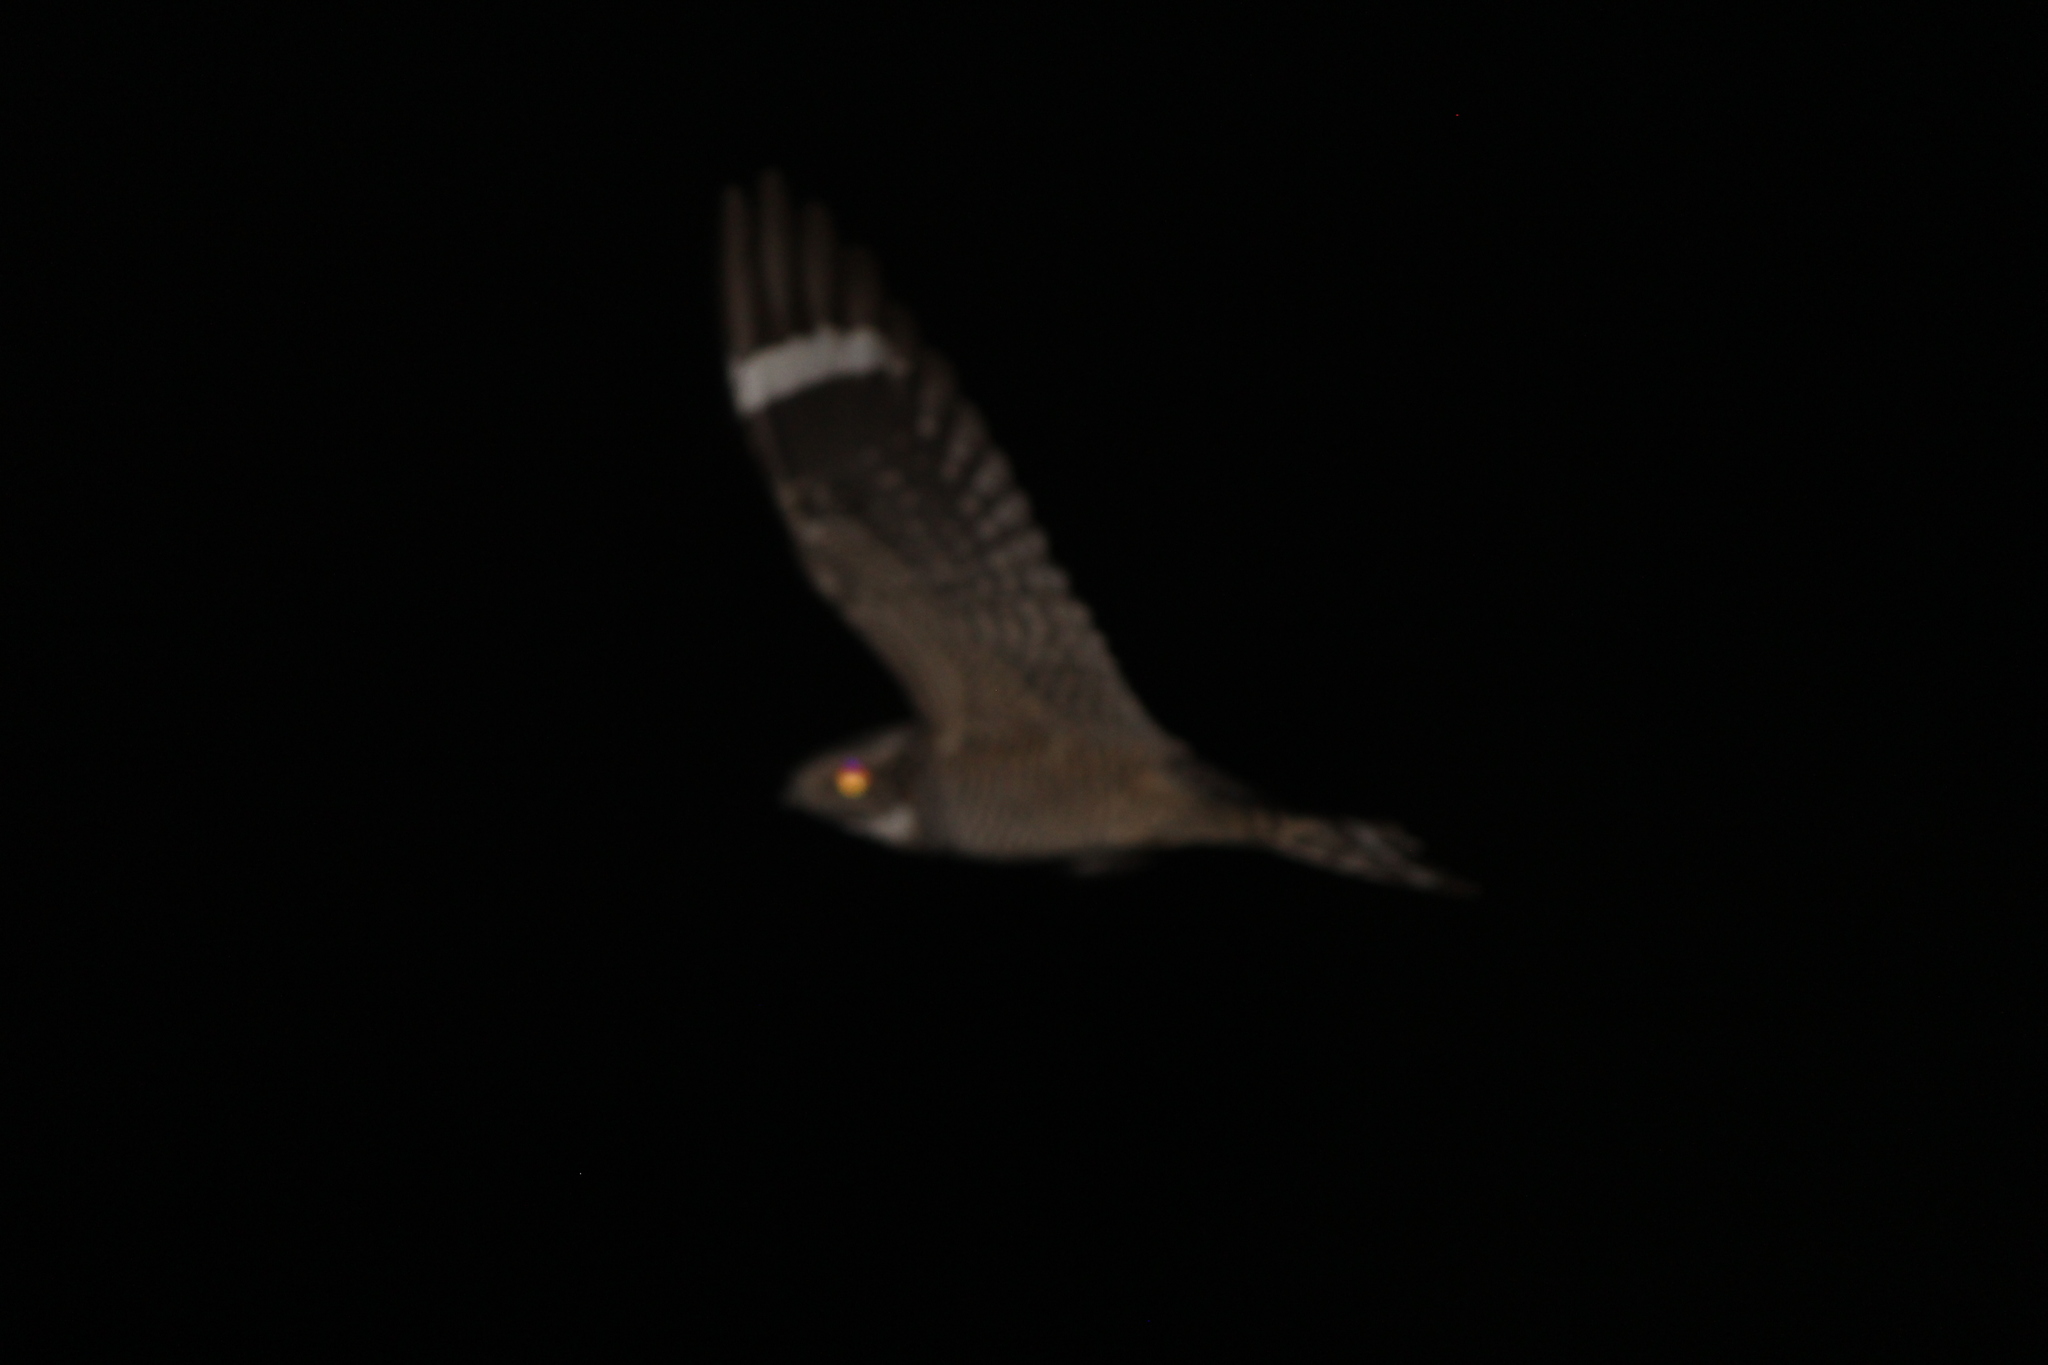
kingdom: Animalia
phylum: Chordata
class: Aves
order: Caprimulgiformes
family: Caprimulgidae
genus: Chordeiles
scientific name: Chordeiles acutipennis
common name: Lesser nighthawk
